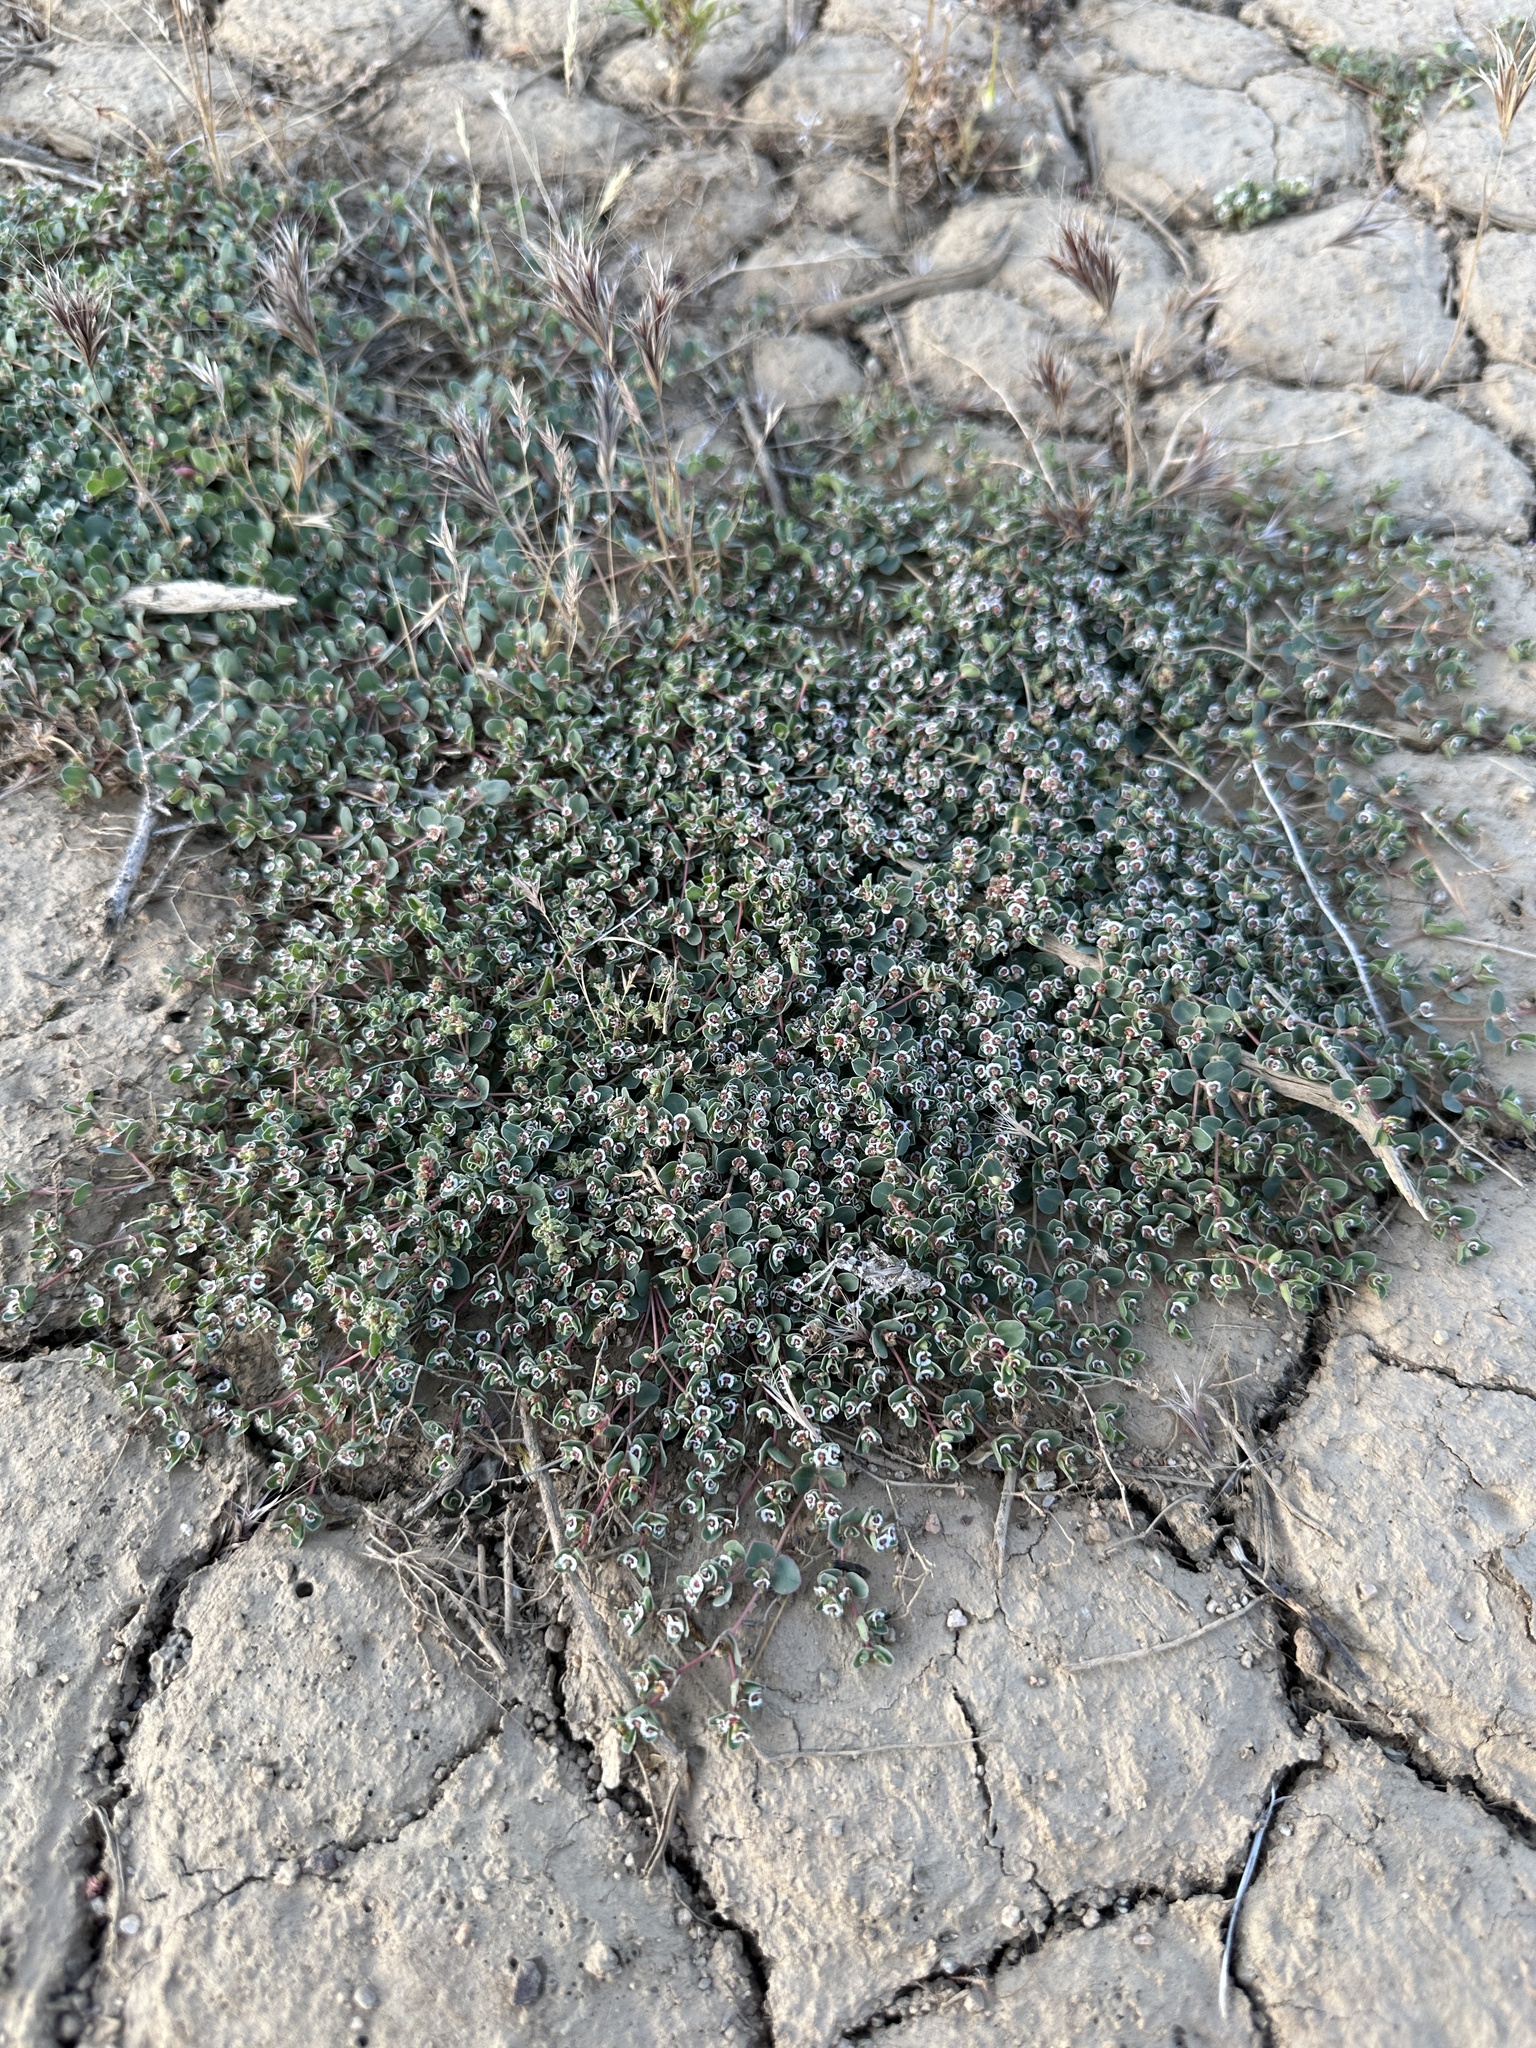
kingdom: Plantae
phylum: Tracheophyta
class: Magnoliopsida
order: Malpighiales
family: Euphorbiaceae
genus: Euphorbia
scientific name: Euphorbia albomarginata
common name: Whitemargin sandmat
